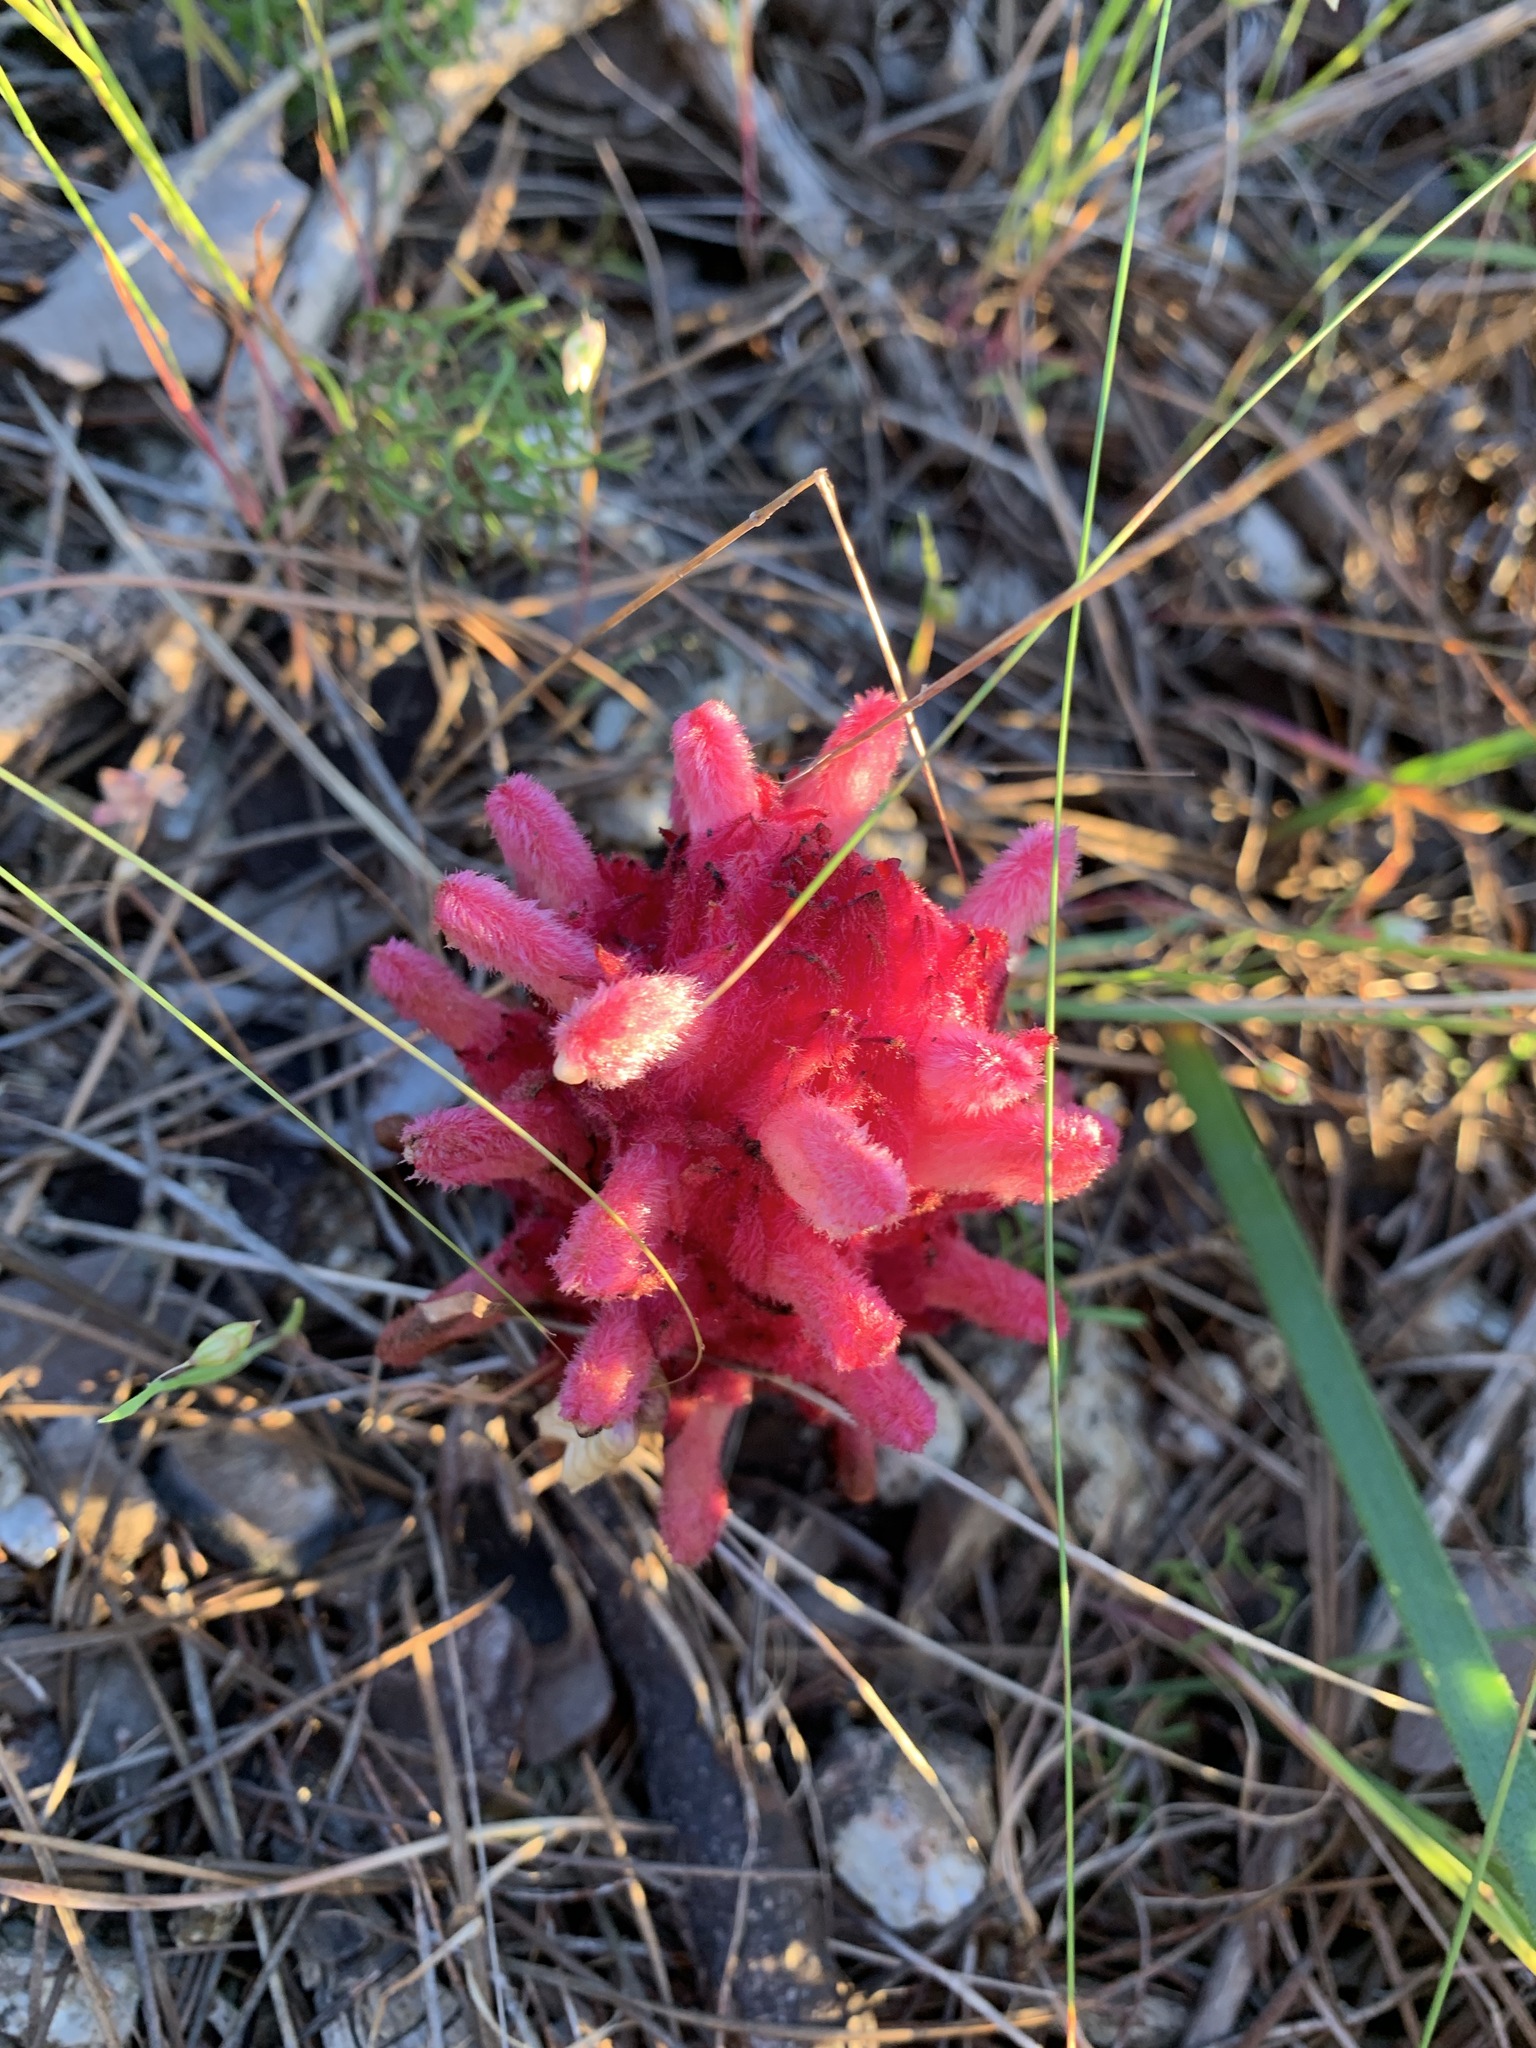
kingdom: Plantae
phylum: Tracheophyta
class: Magnoliopsida
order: Lamiales
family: Orobanchaceae
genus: Hyobanche
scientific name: Hyobanche sanguinea
